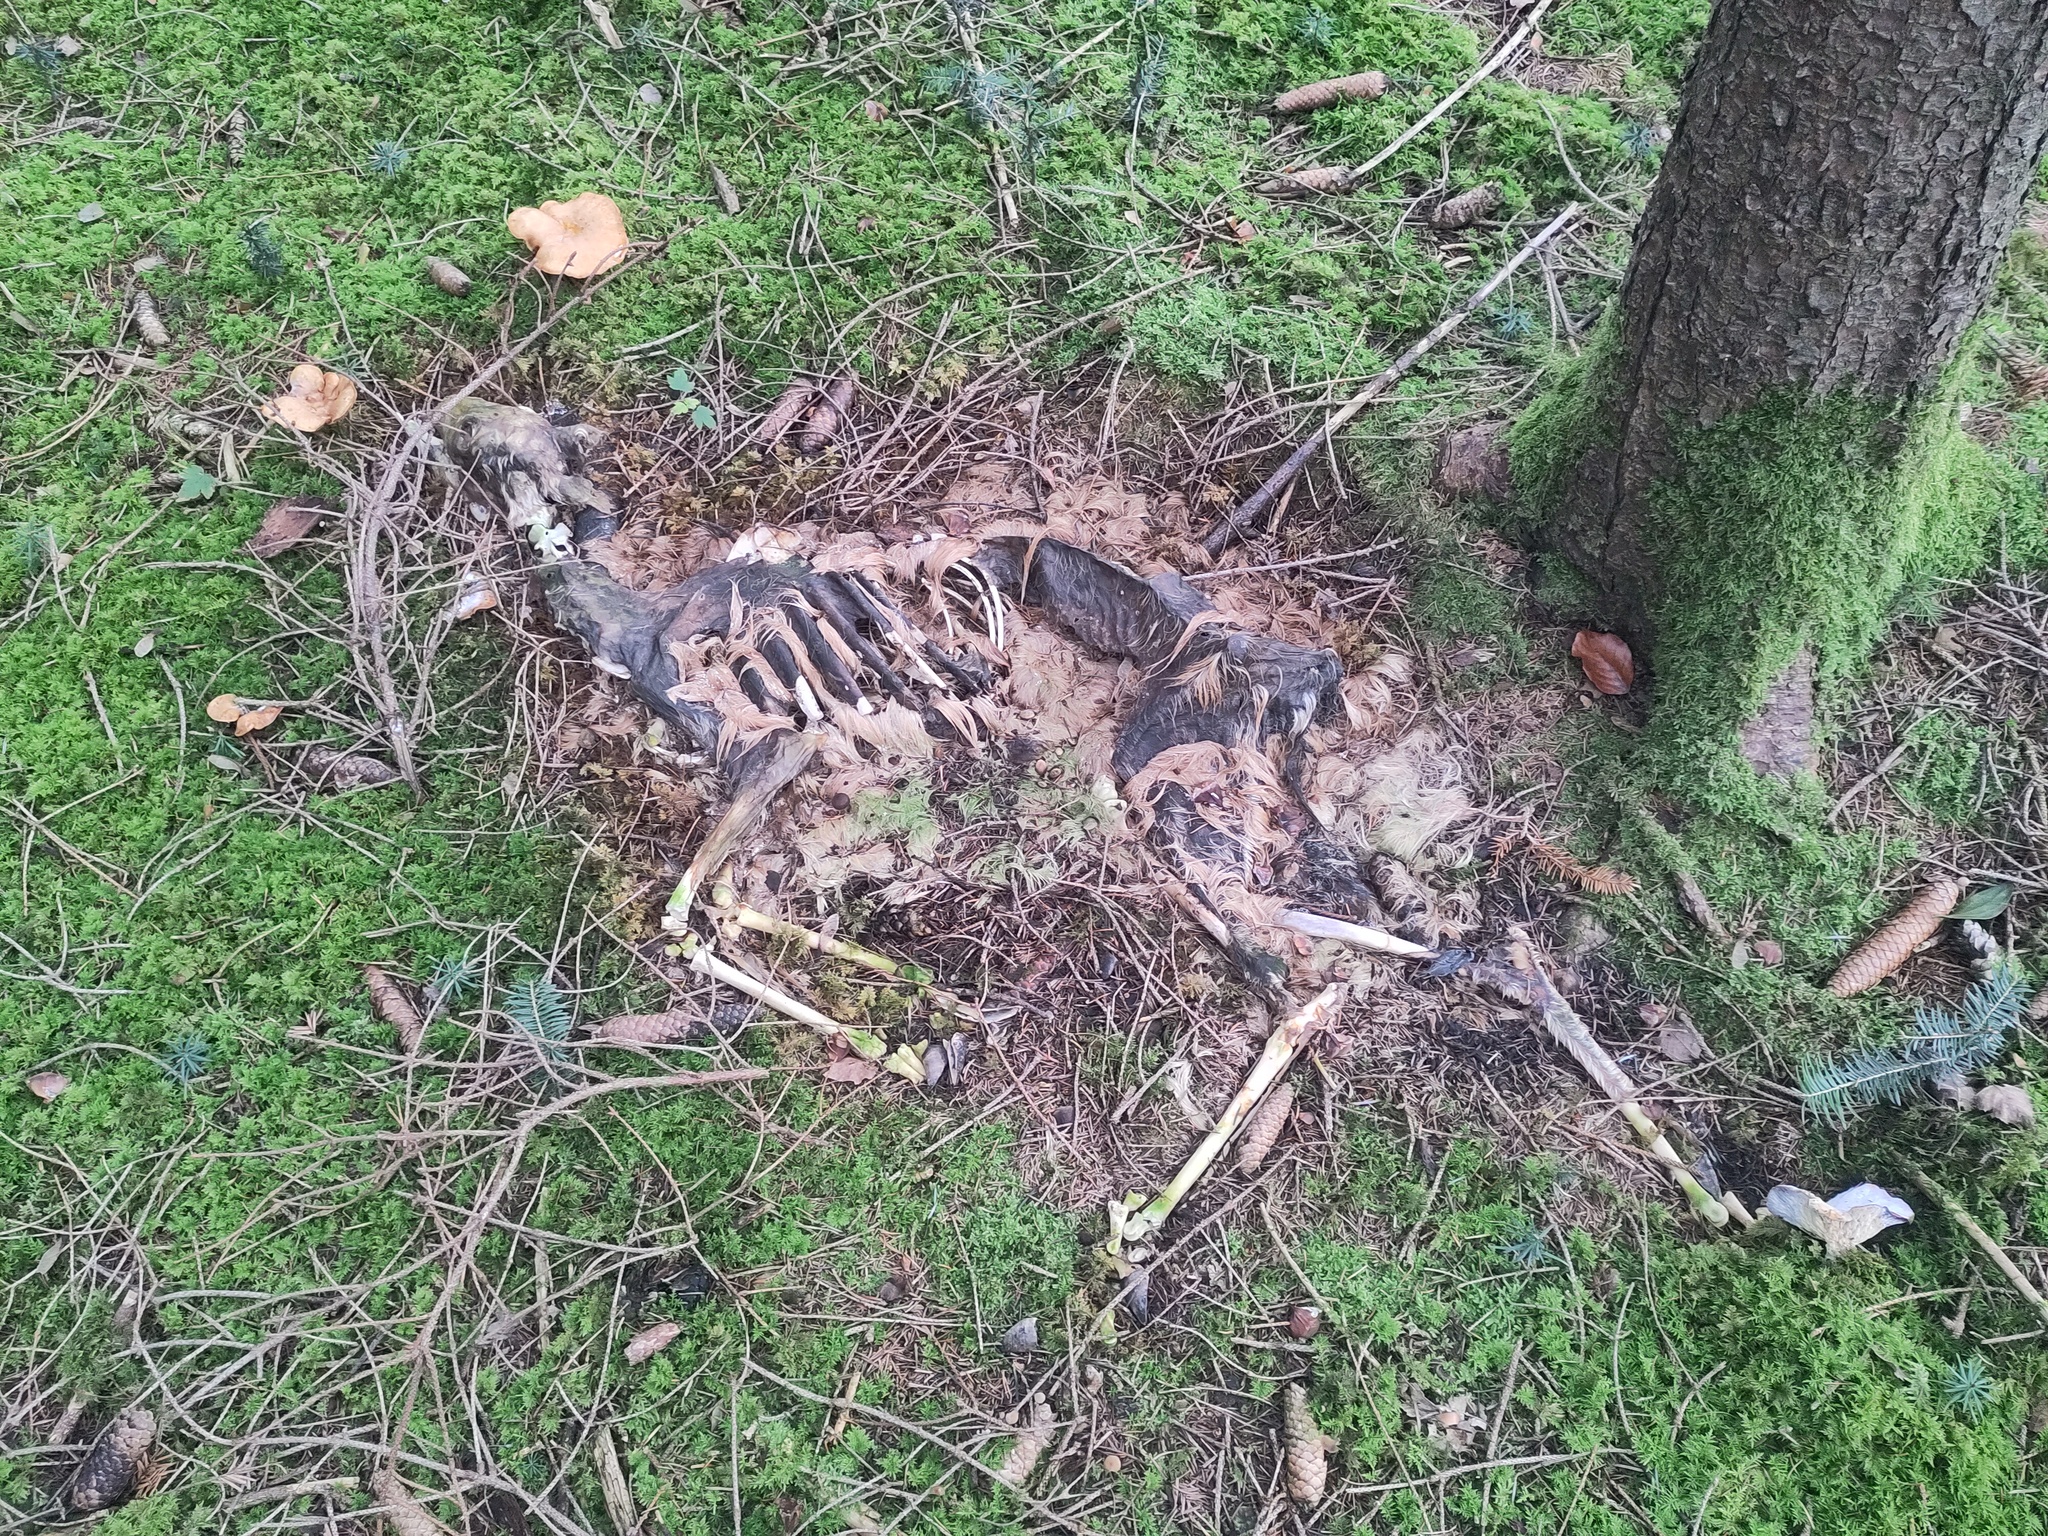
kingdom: Animalia
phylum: Chordata
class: Mammalia
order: Artiodactyla
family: Cervidae
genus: Capreolus
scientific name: Capreolus capreolus
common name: Western roe deer
